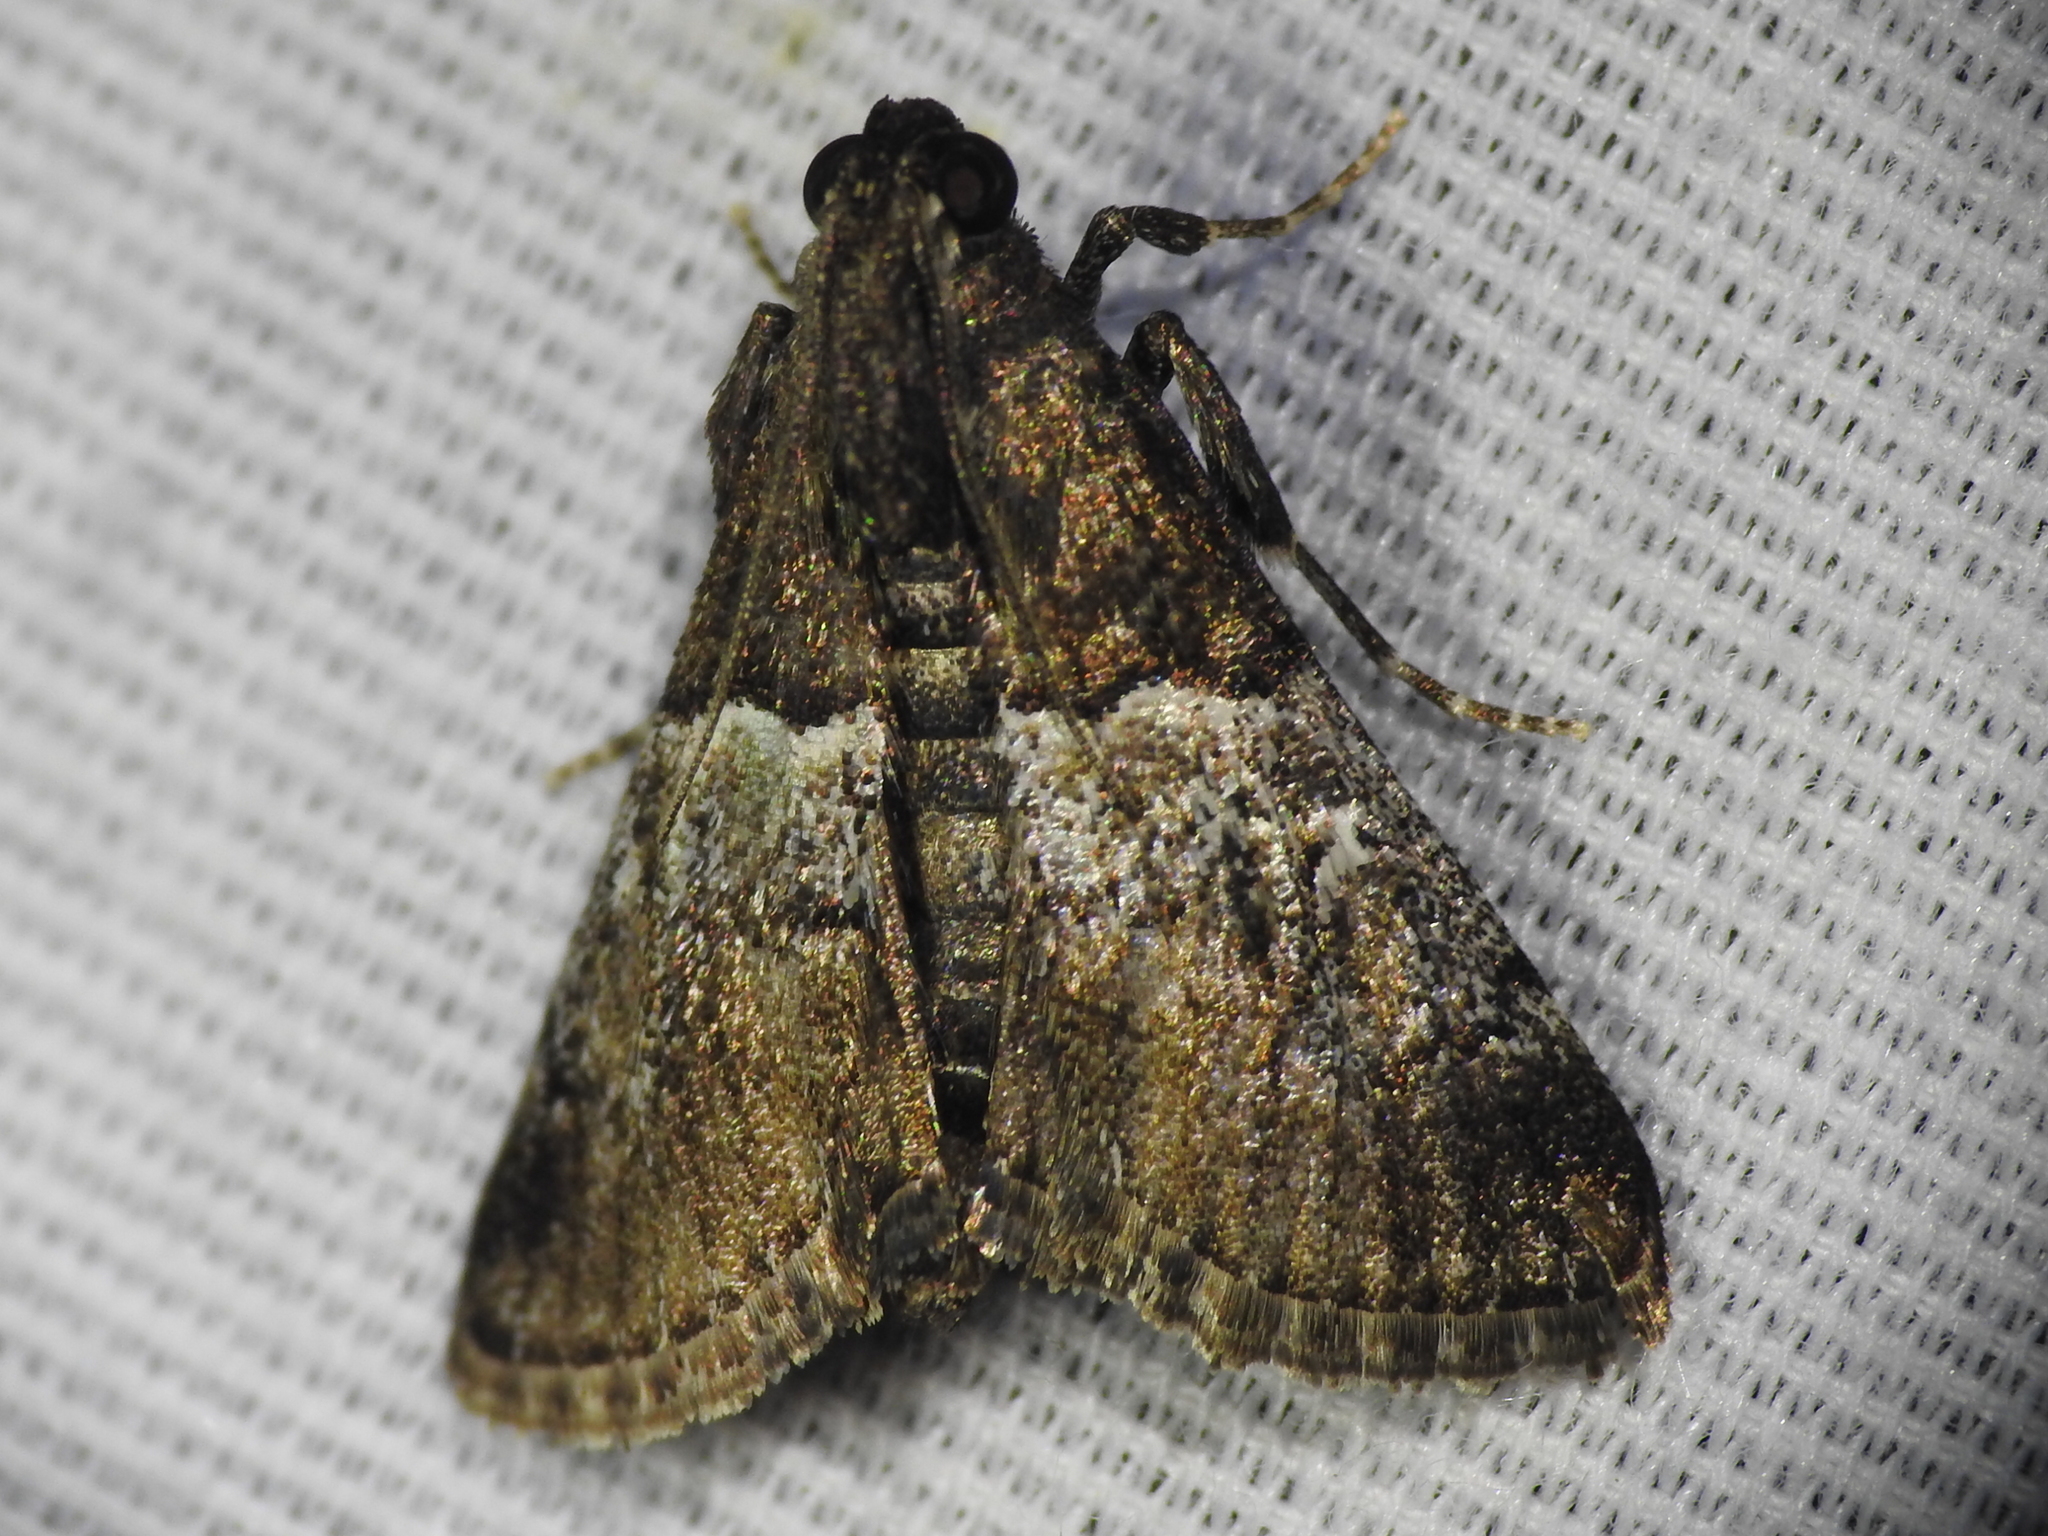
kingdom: Animalia
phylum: Arthropoda
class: Insecta
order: Lepidoptera
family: Pyralidae
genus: Macalla
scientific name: Macalla zelleri
